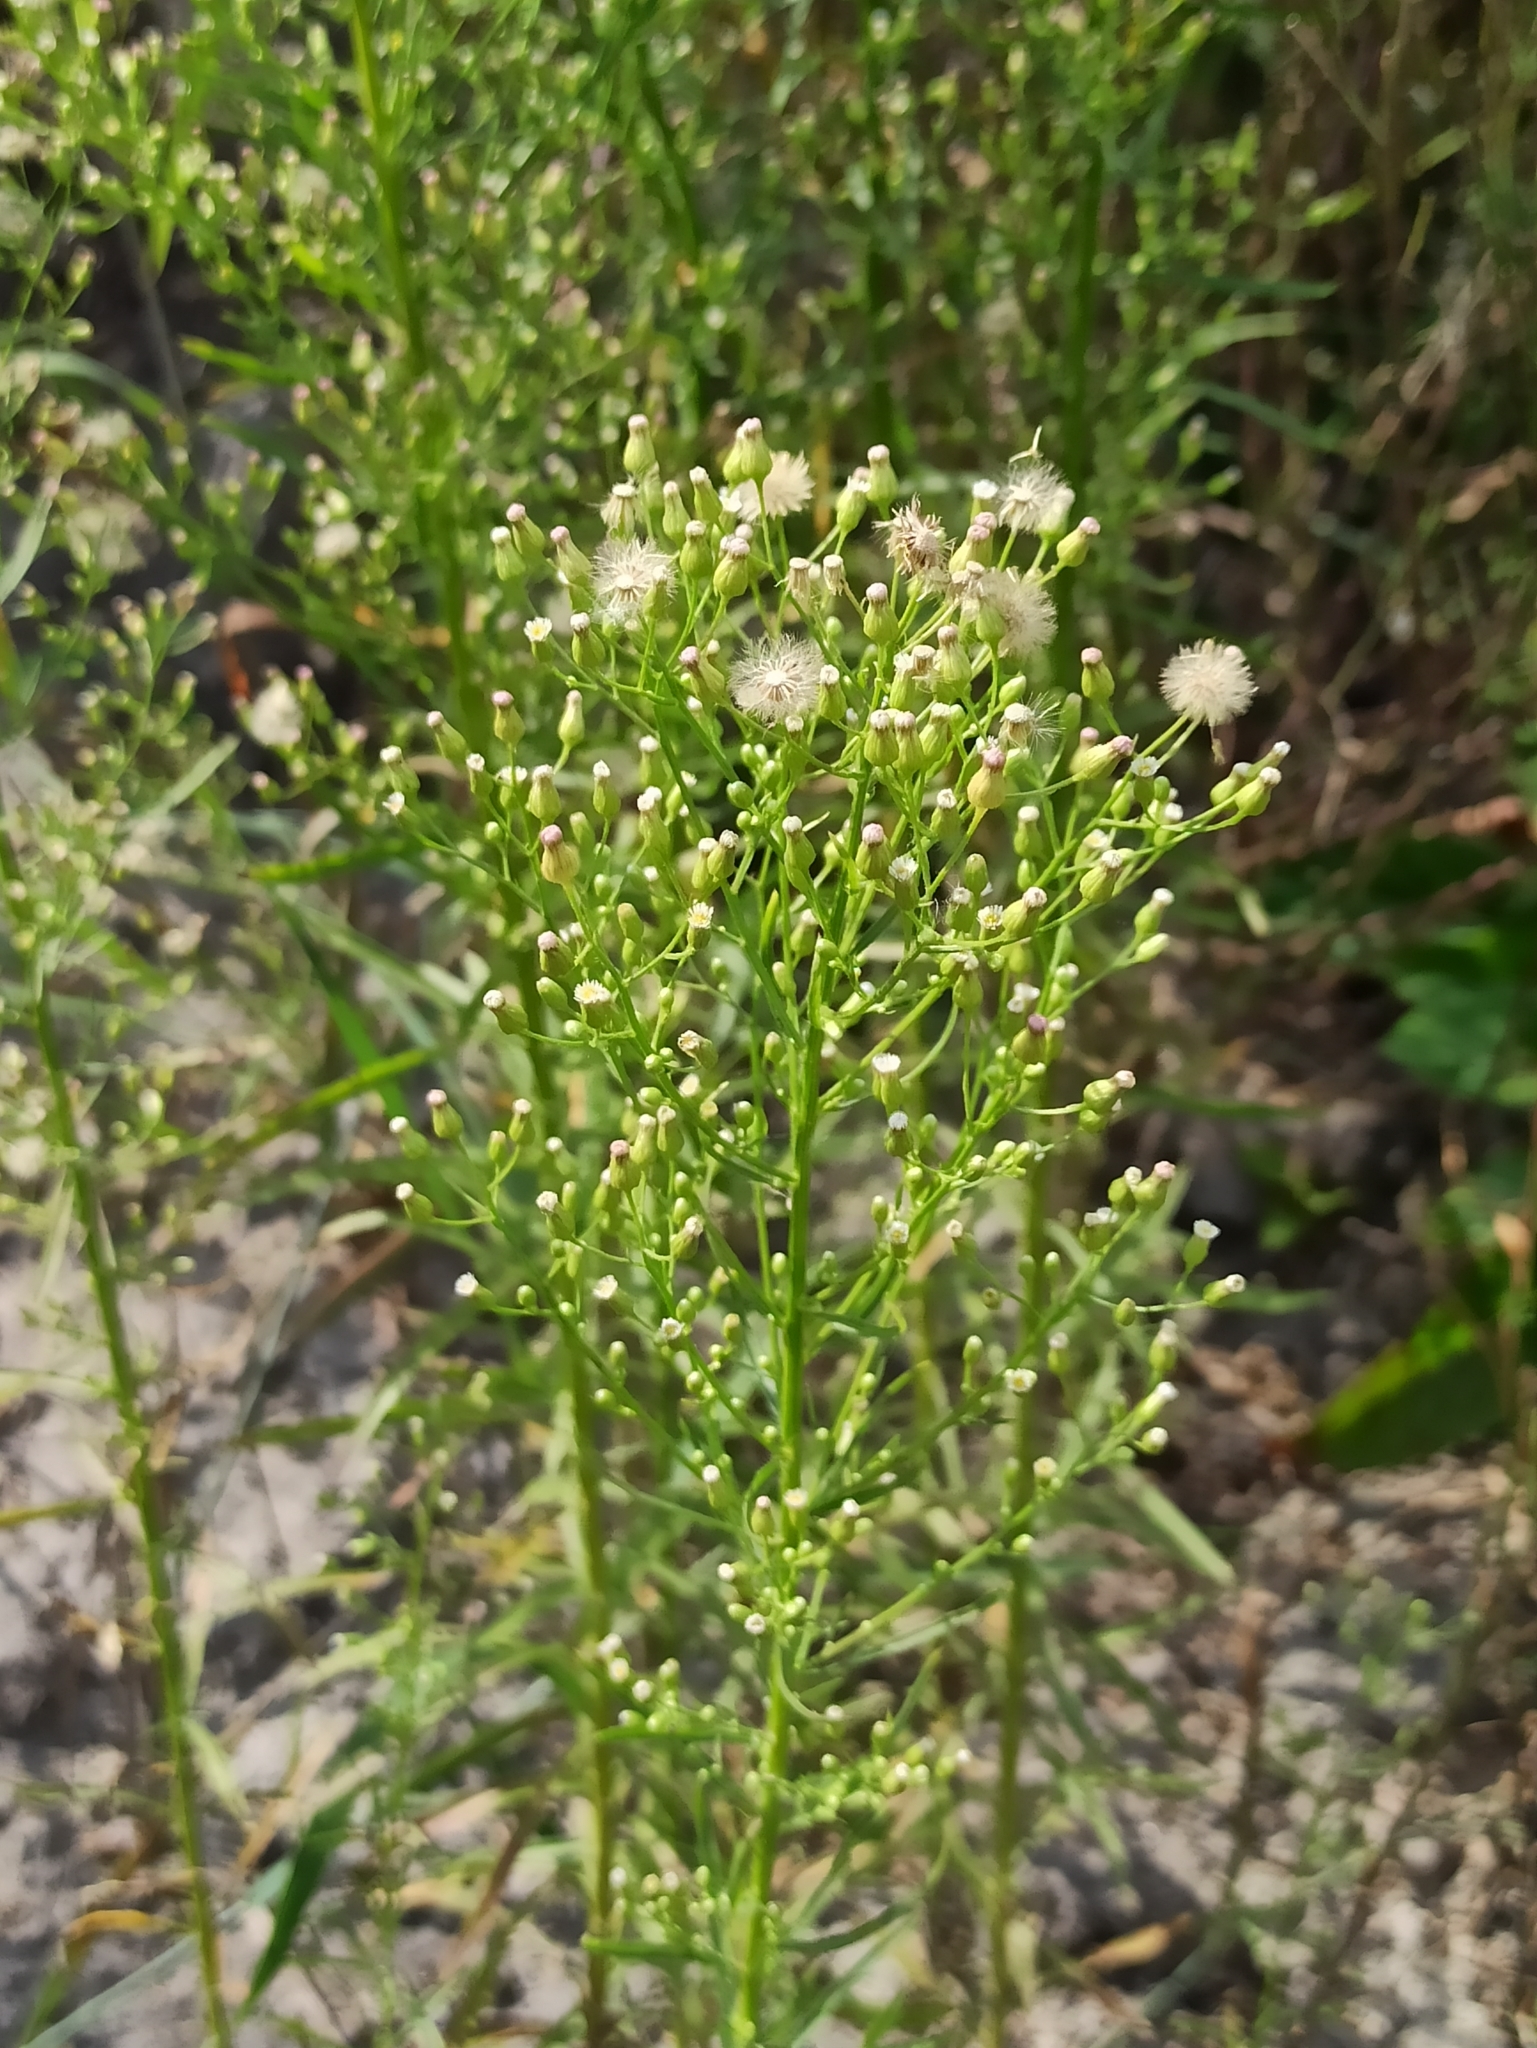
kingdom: Plantae
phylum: Tracheophyta
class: Magnoliopsida
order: Asterales
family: Asteraceae
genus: Erigeron
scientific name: Erigeron canadensis
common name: Canadian fleabane
